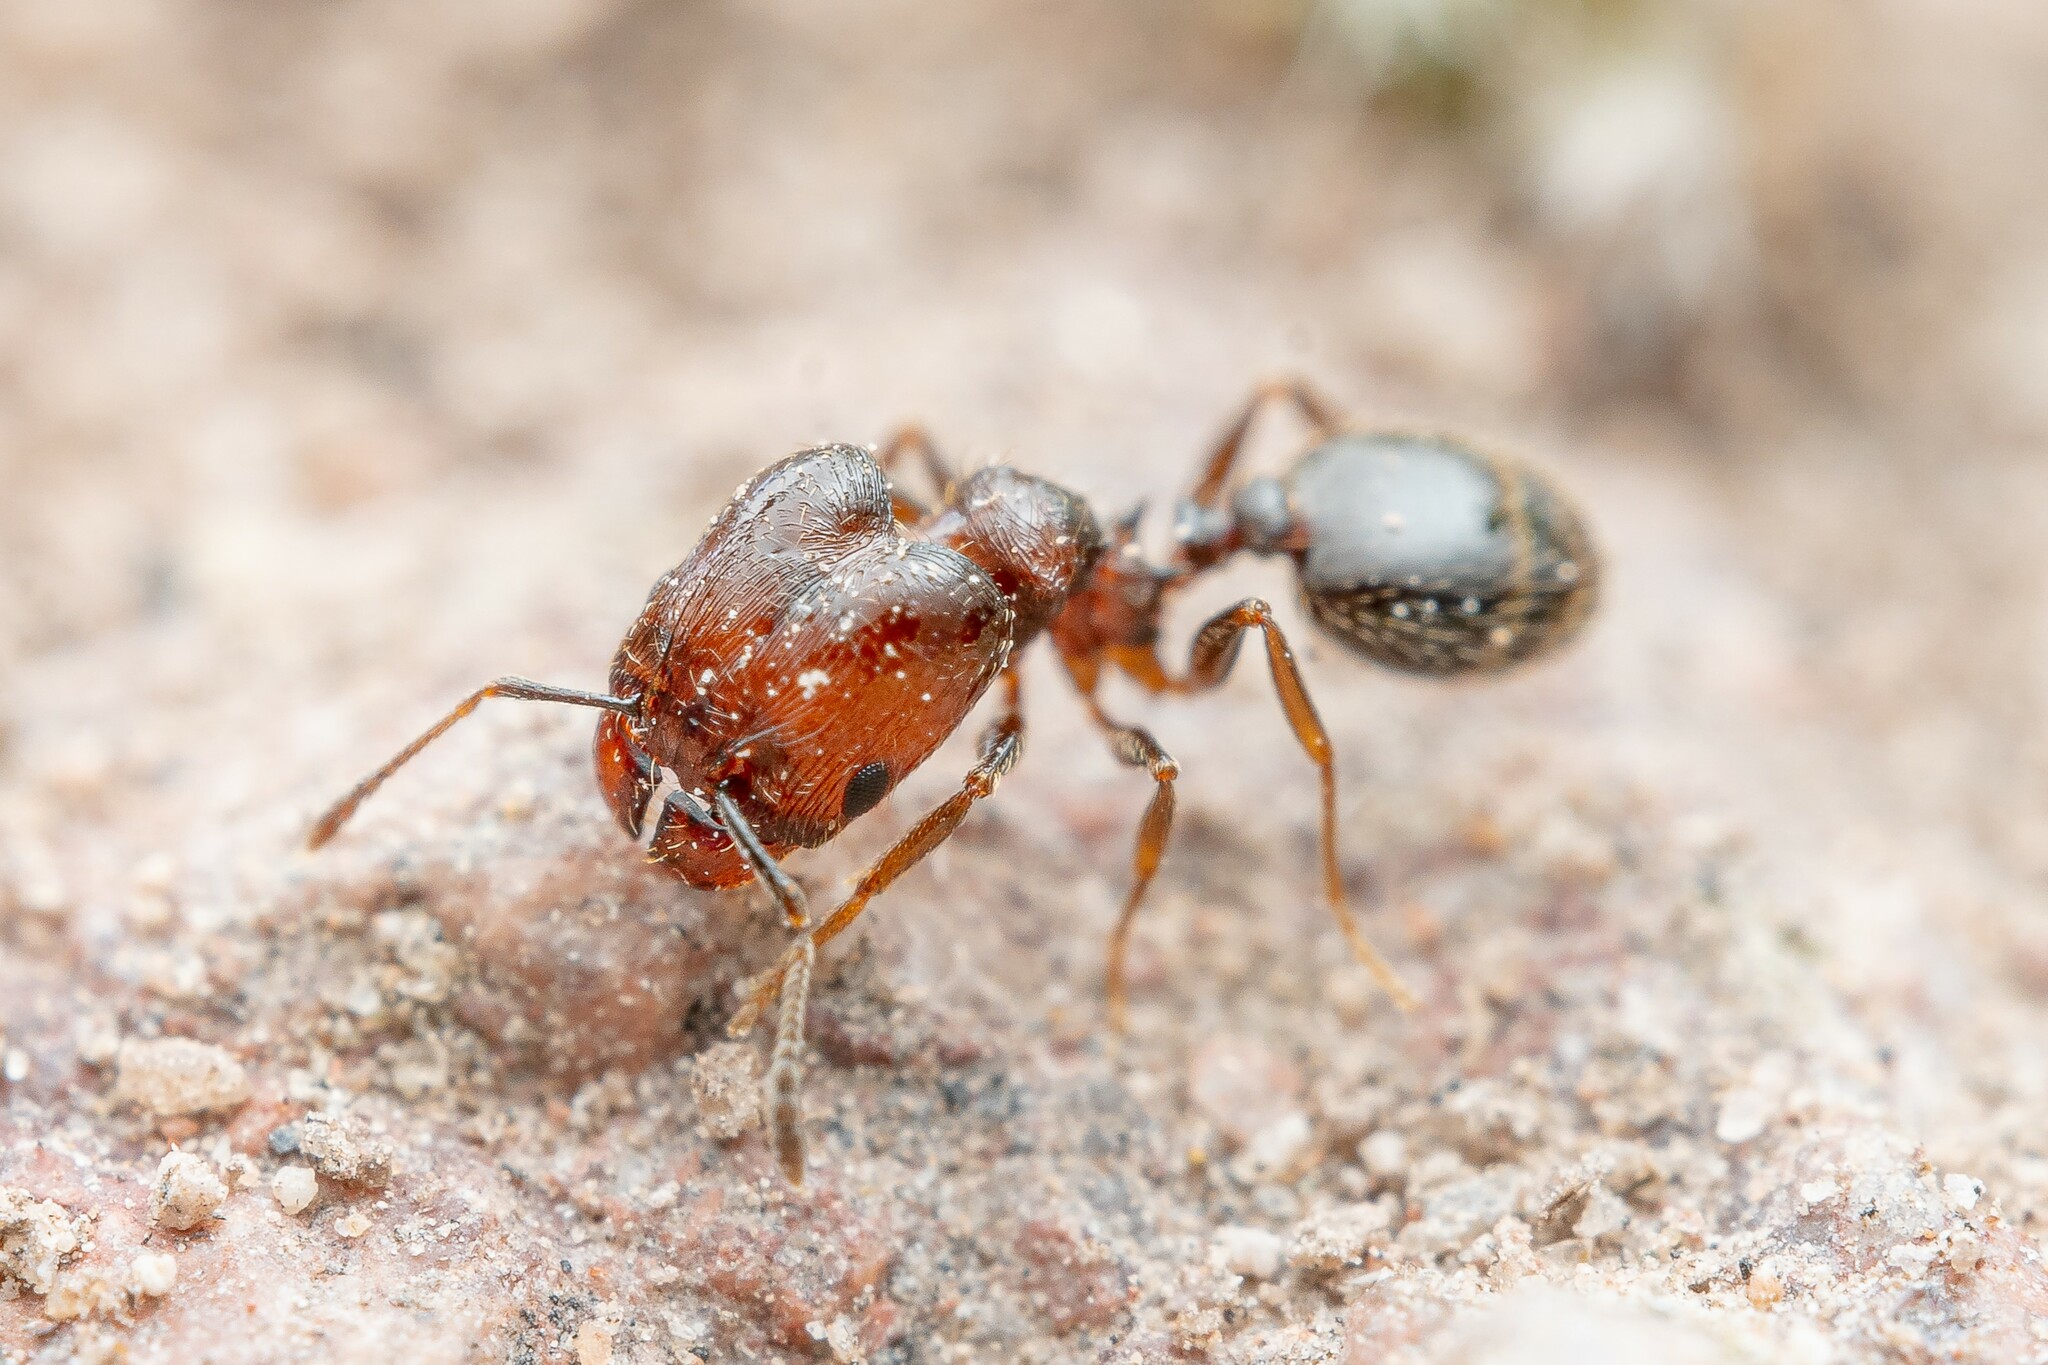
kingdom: Animalia
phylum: Arthropoda
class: Insecta
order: Hymenoptera
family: Formicidae
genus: Pheidole
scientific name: Pheidole rugulosa
